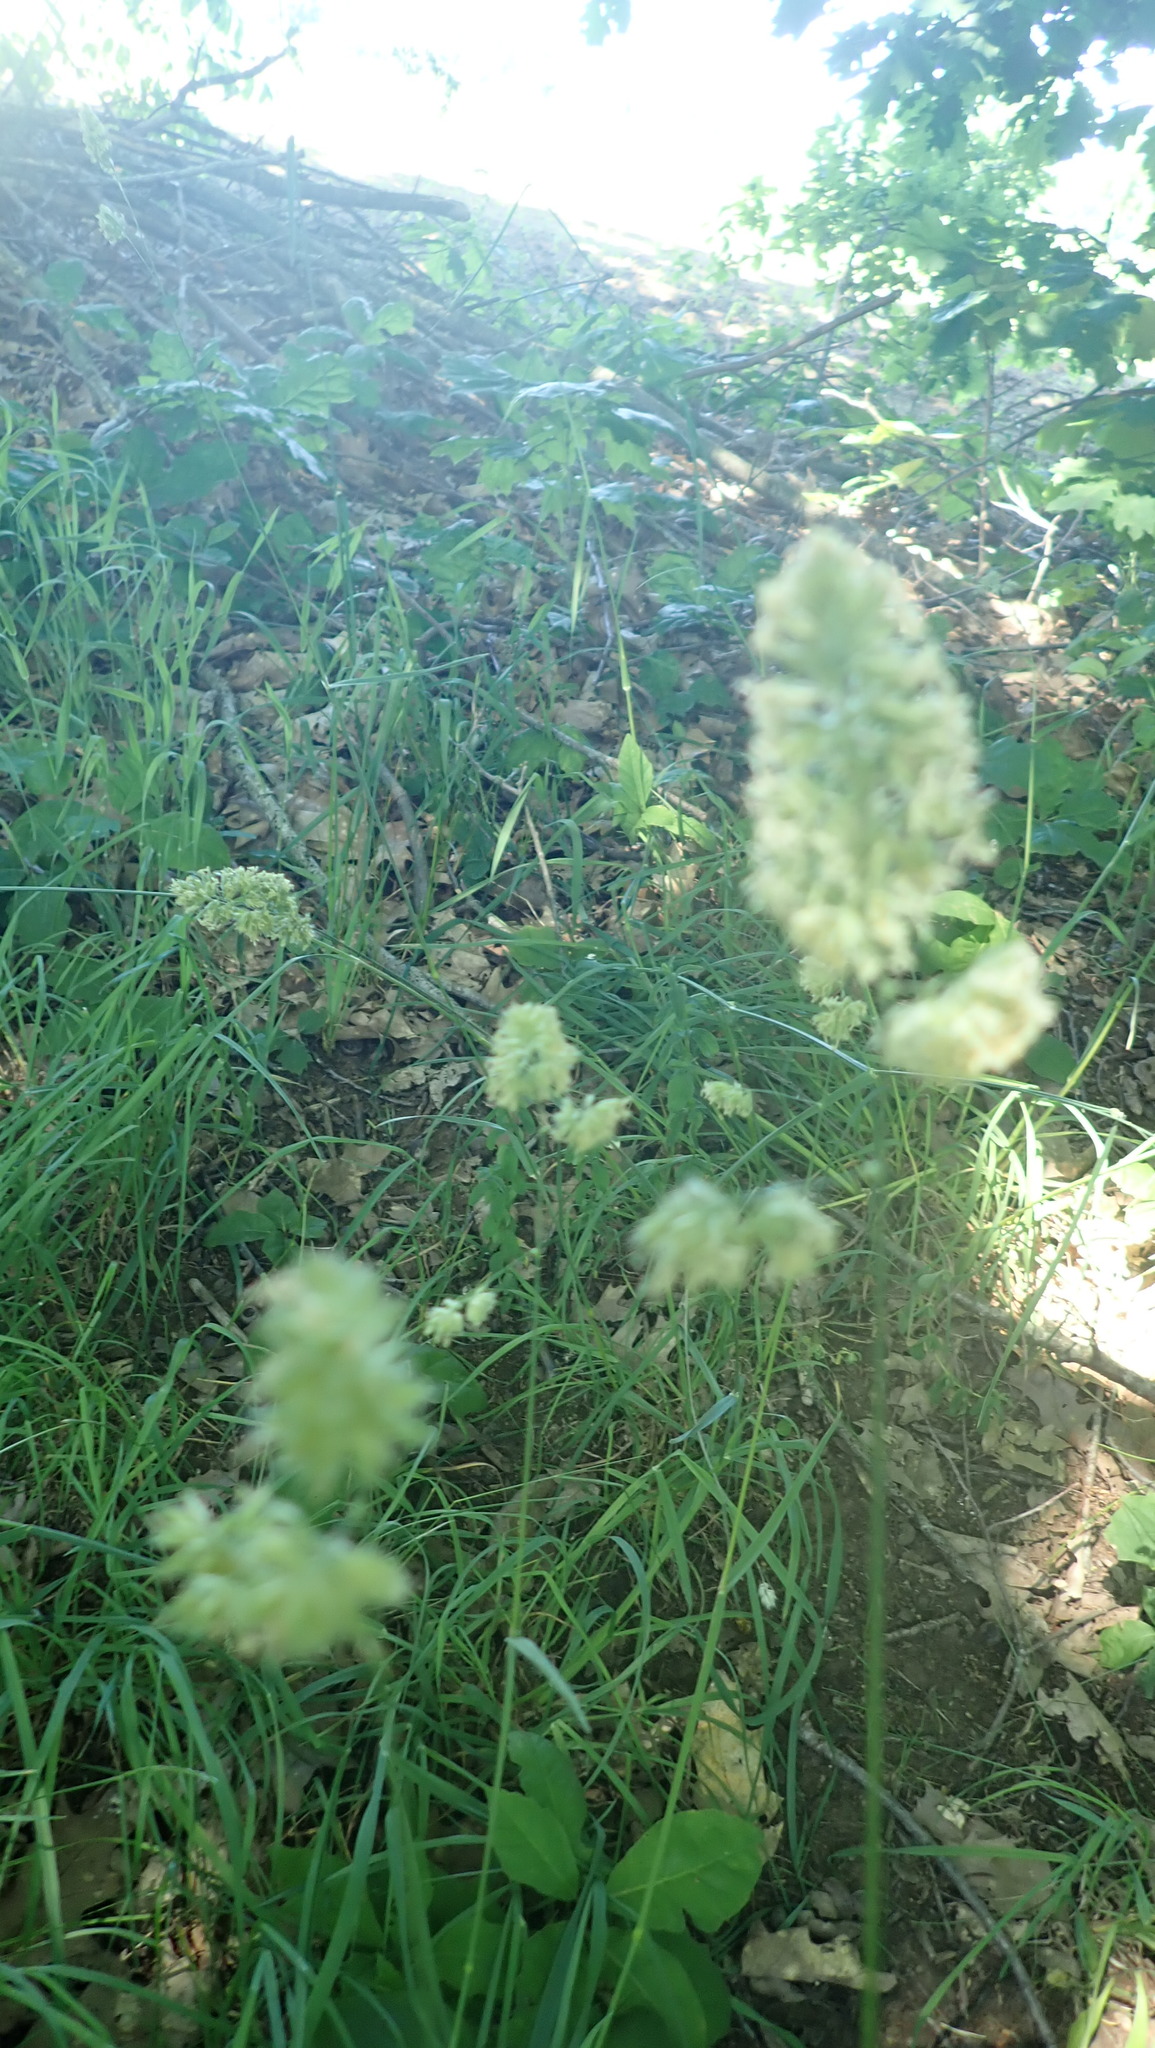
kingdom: Plantae
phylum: Tracheophyta
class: Liliopsida
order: Poales
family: Poaceae
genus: Dactylis
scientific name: Dactylis glomerata
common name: Orchardgrass
